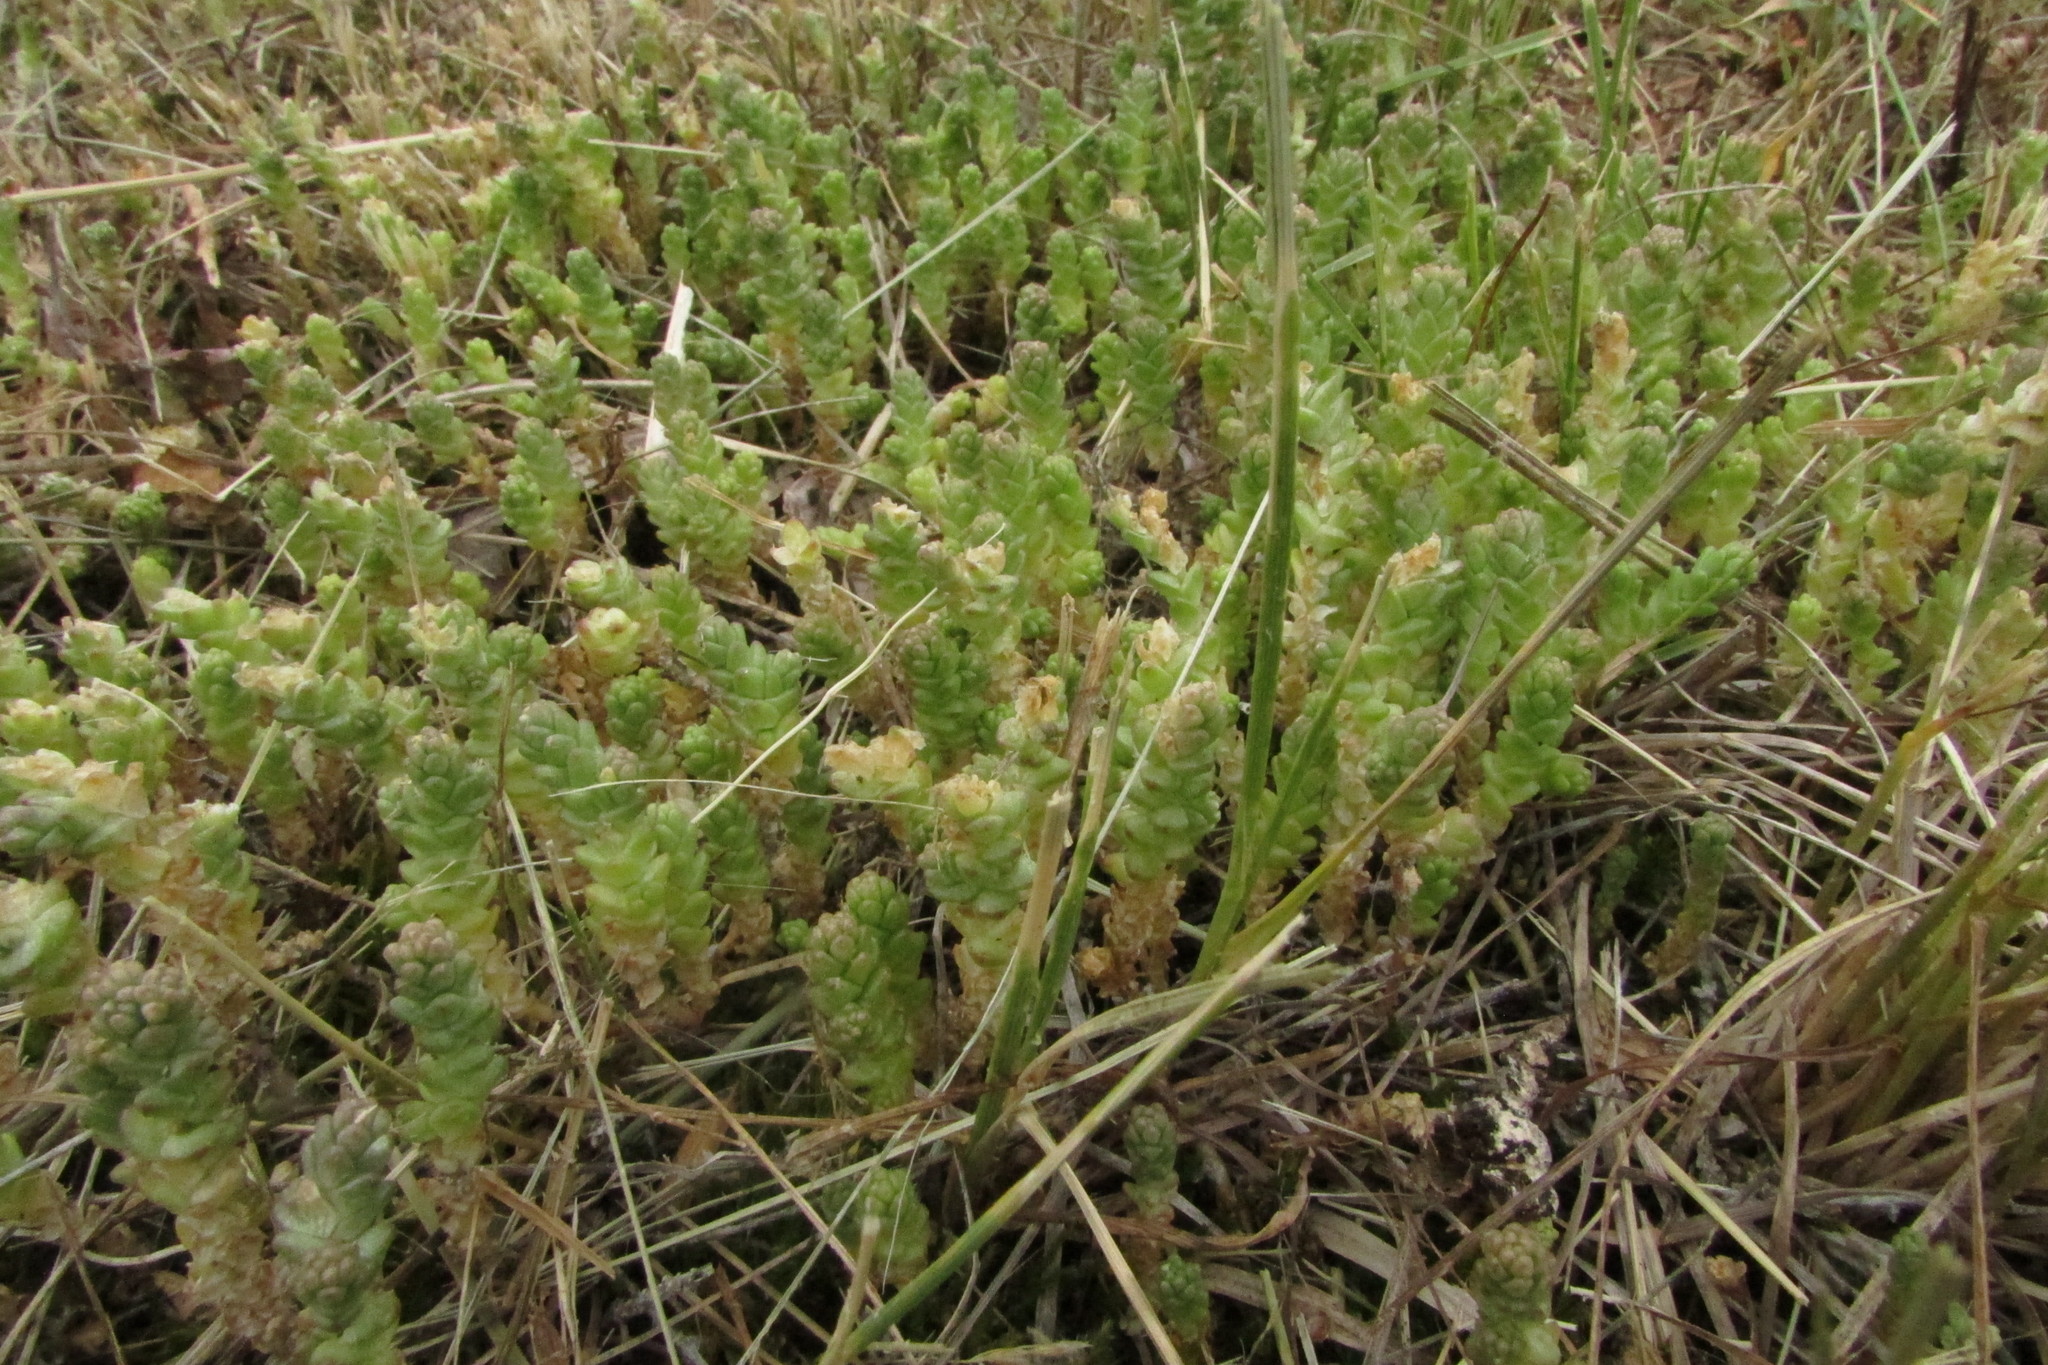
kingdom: Plantae
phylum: Tracheophyta
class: Magnoliopsida
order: Saxifragales
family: Crassulaceae
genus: Sedum
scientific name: Sedum acre
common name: Biting stonecrop
